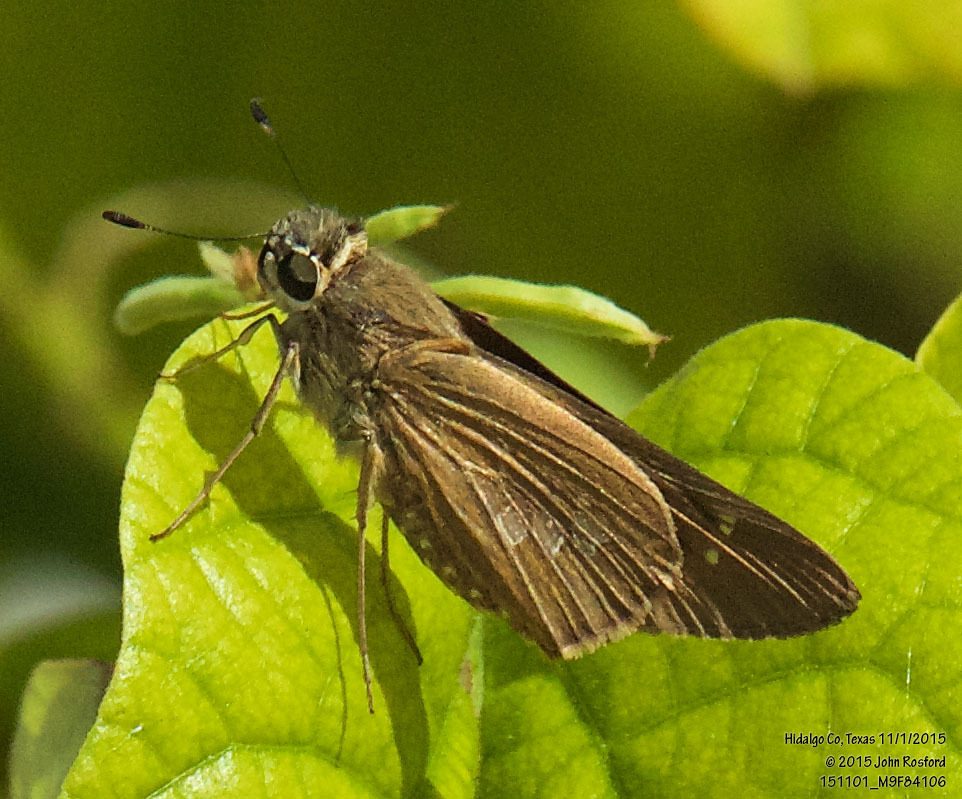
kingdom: Animalia
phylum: Arthropoda
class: Insecta
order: Lepidoptera
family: Hesperiidae
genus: Calpodes
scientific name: Calpodes ethlius
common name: Brazilian skipper
